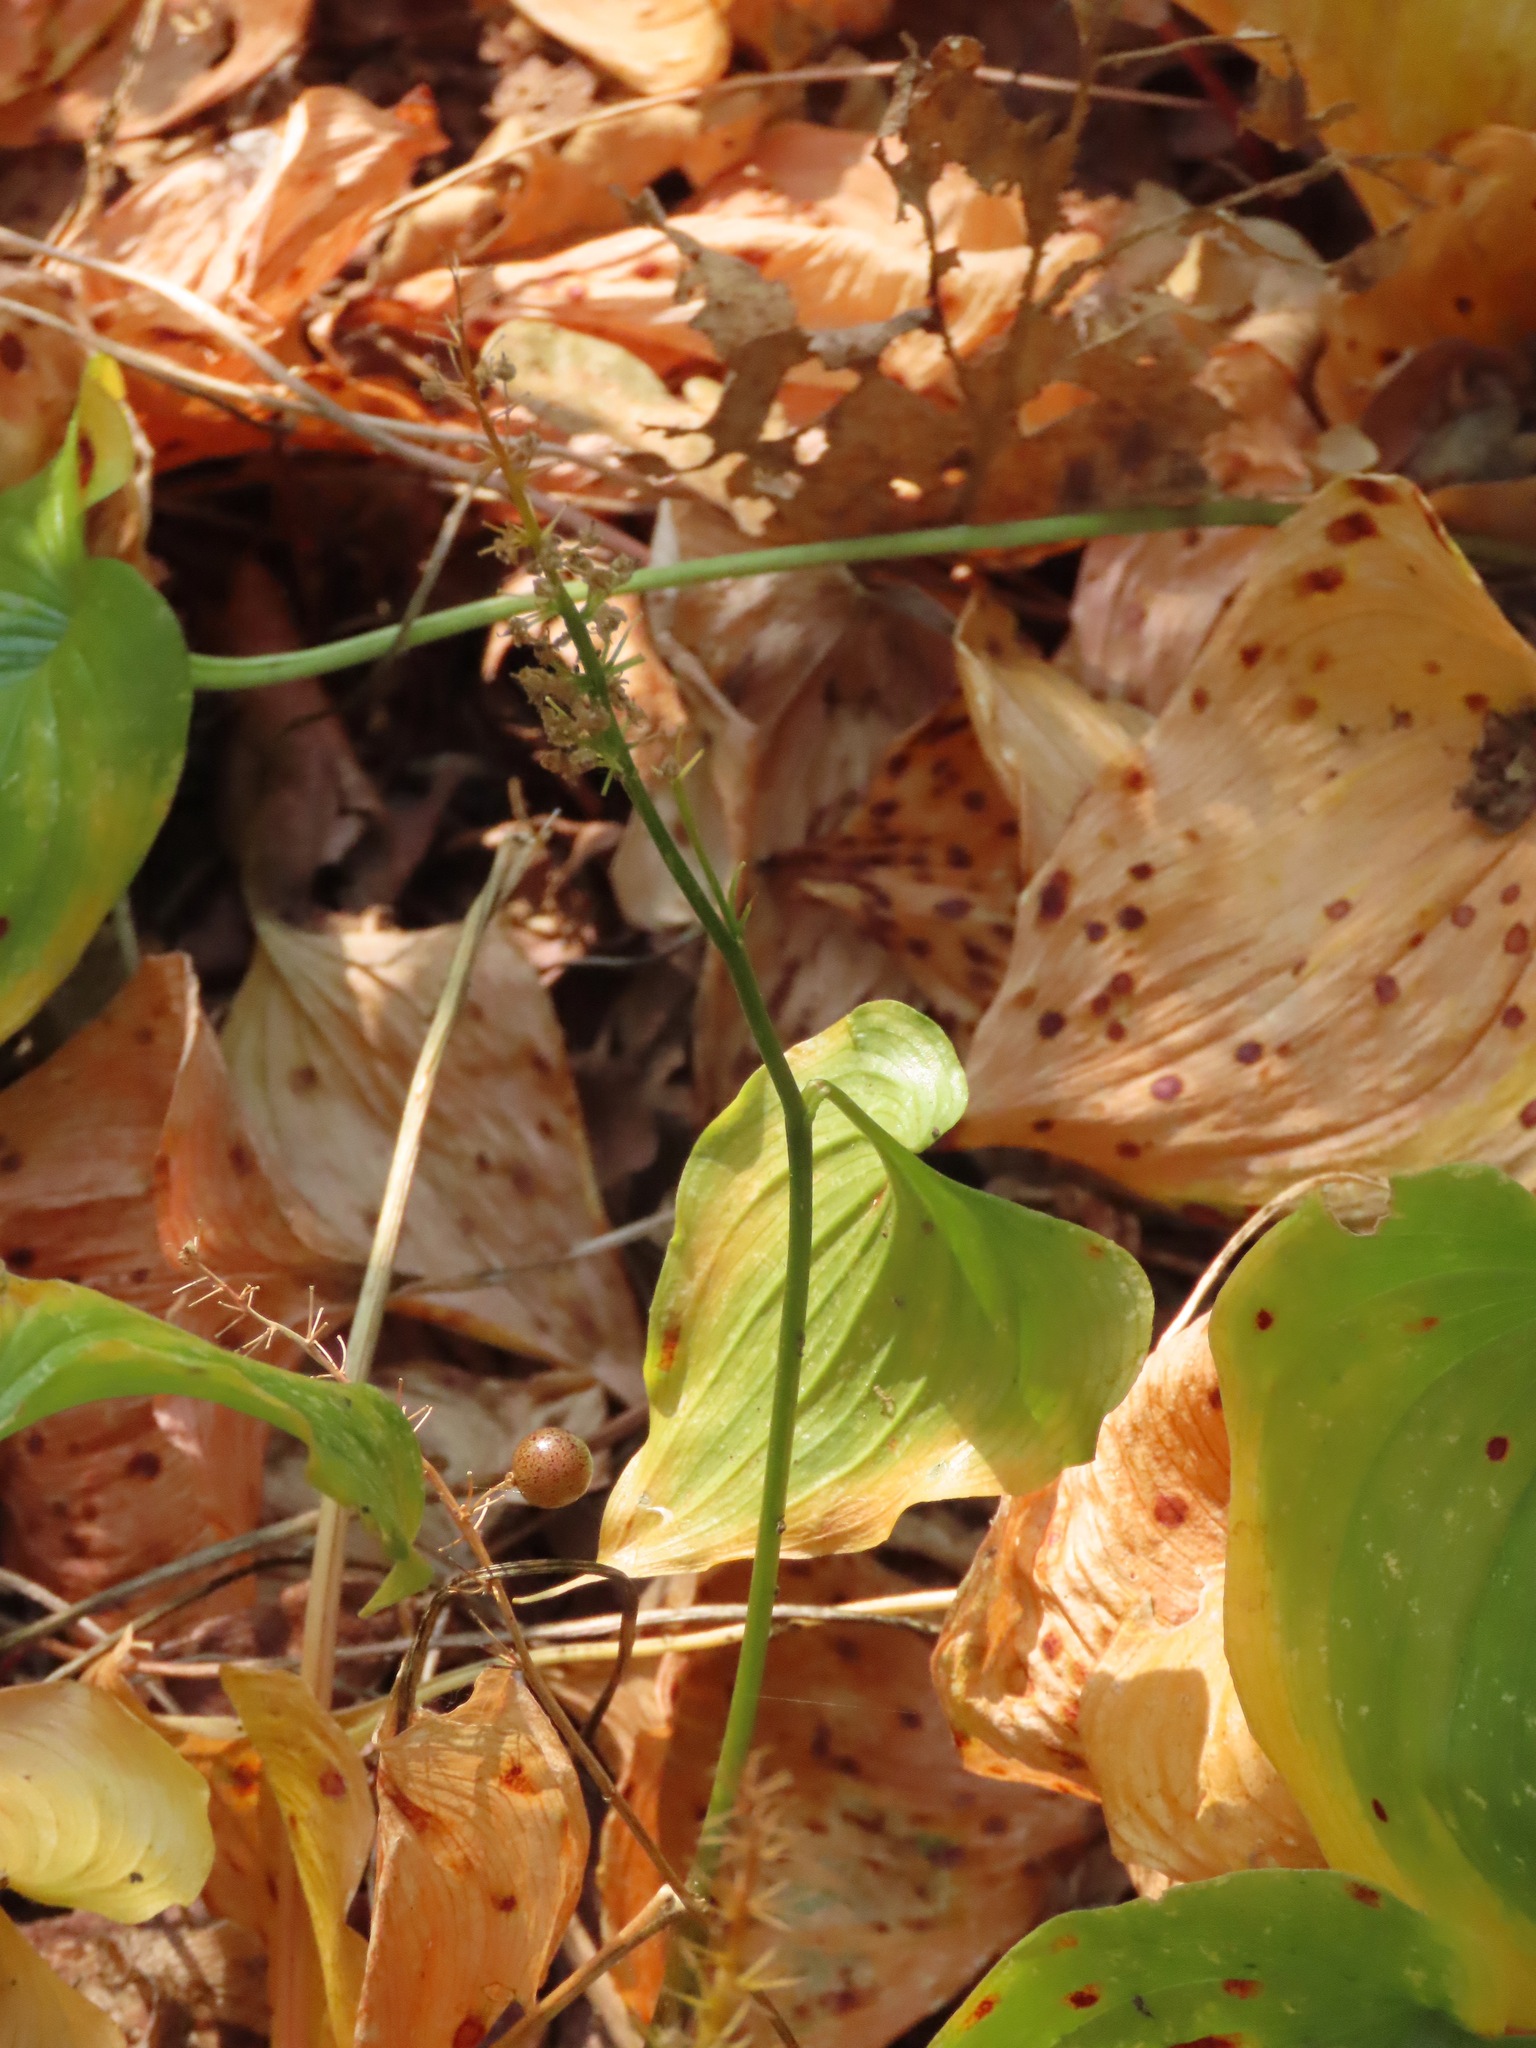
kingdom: Plantae
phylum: Tracheophyta
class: Liliopsida
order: Asparagales
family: Asparagaceae
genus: Maianthemum
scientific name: Maianthemum dilatatum
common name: False lily-of-the-valley
